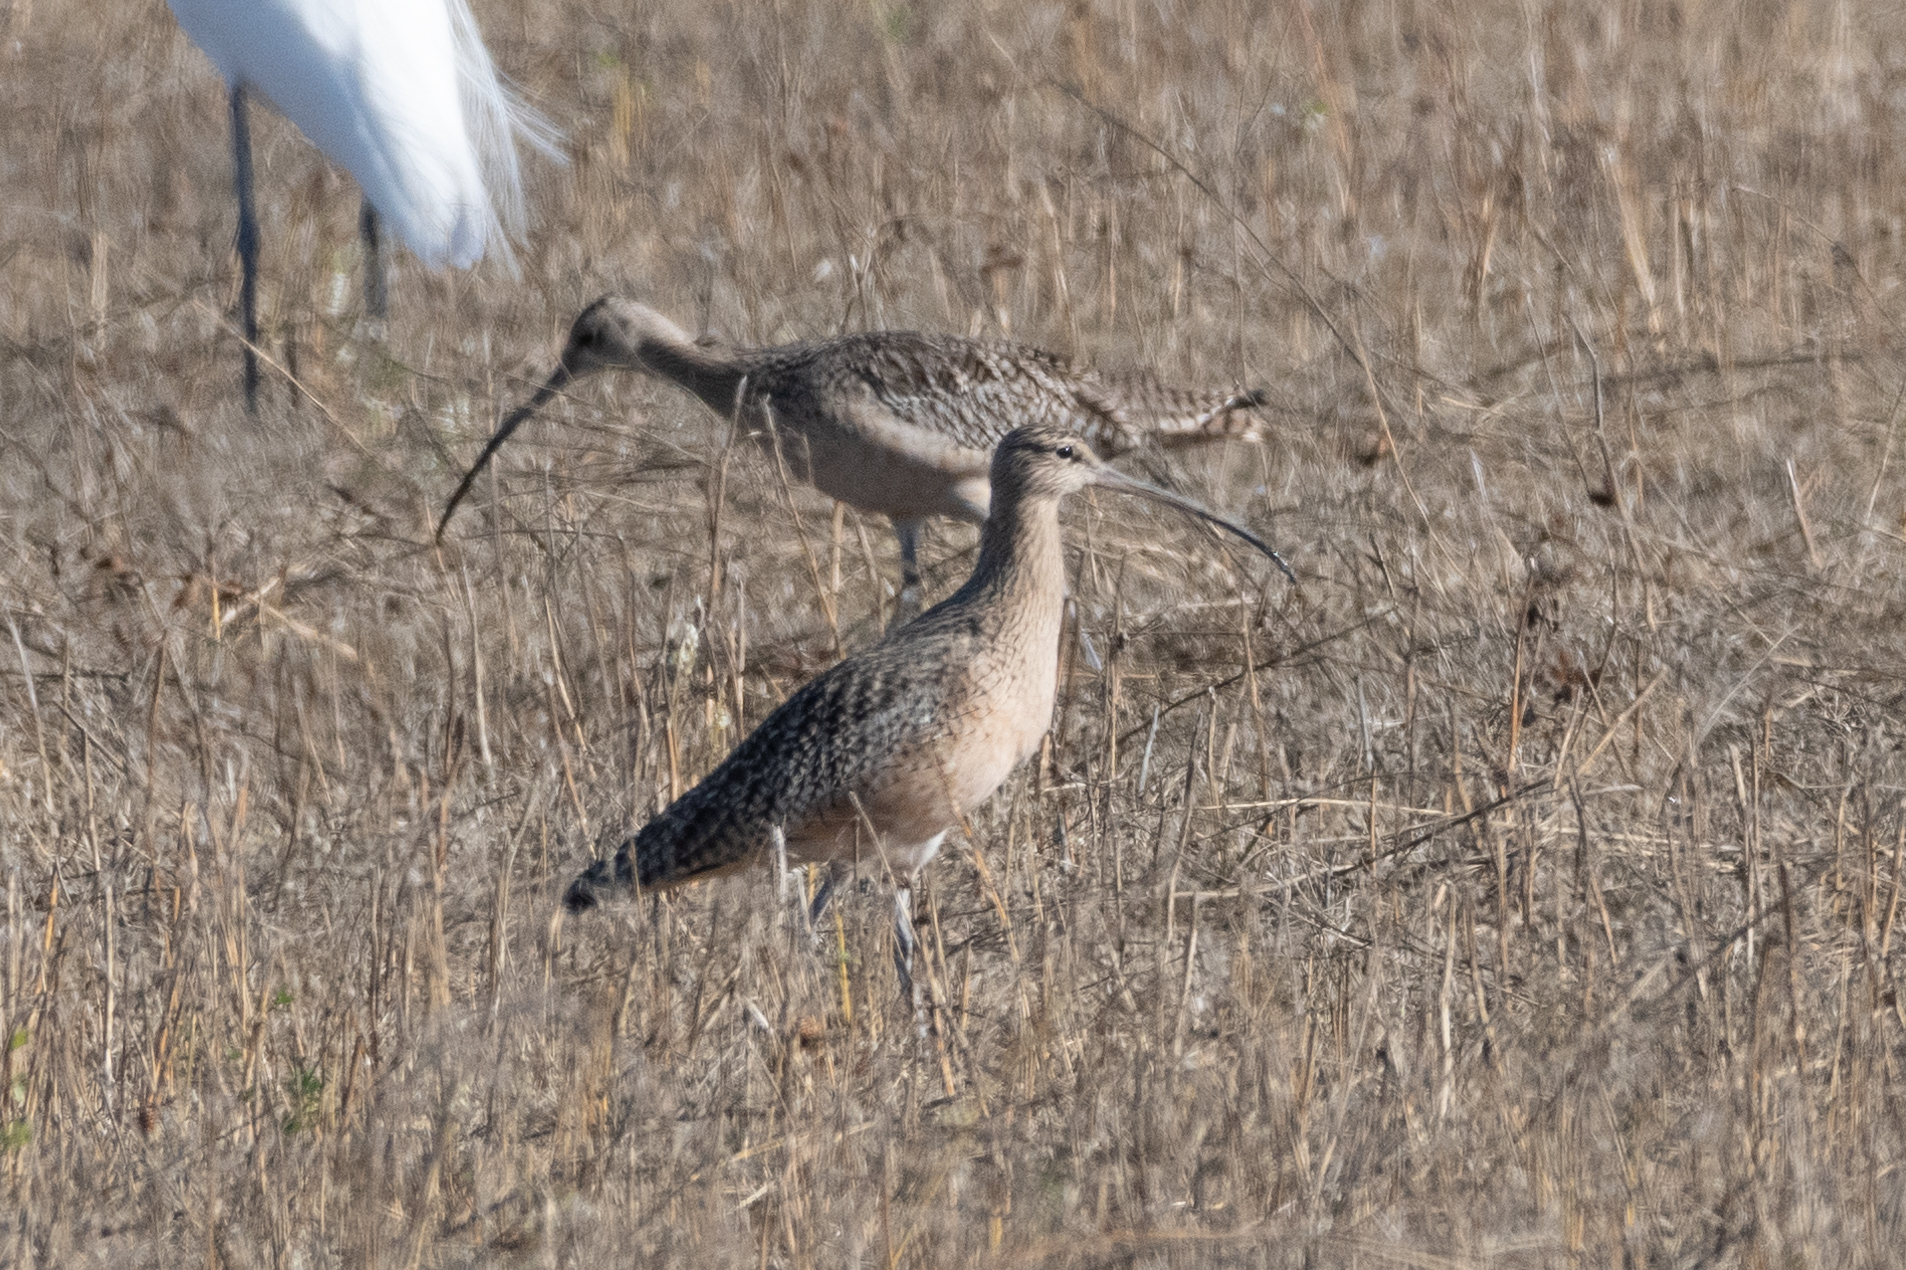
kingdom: Animalia
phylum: Chordata
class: Aves
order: Charadriiformes
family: Scolopacidae
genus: Numenius
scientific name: Numenius americanus
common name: Long-billed curlew
